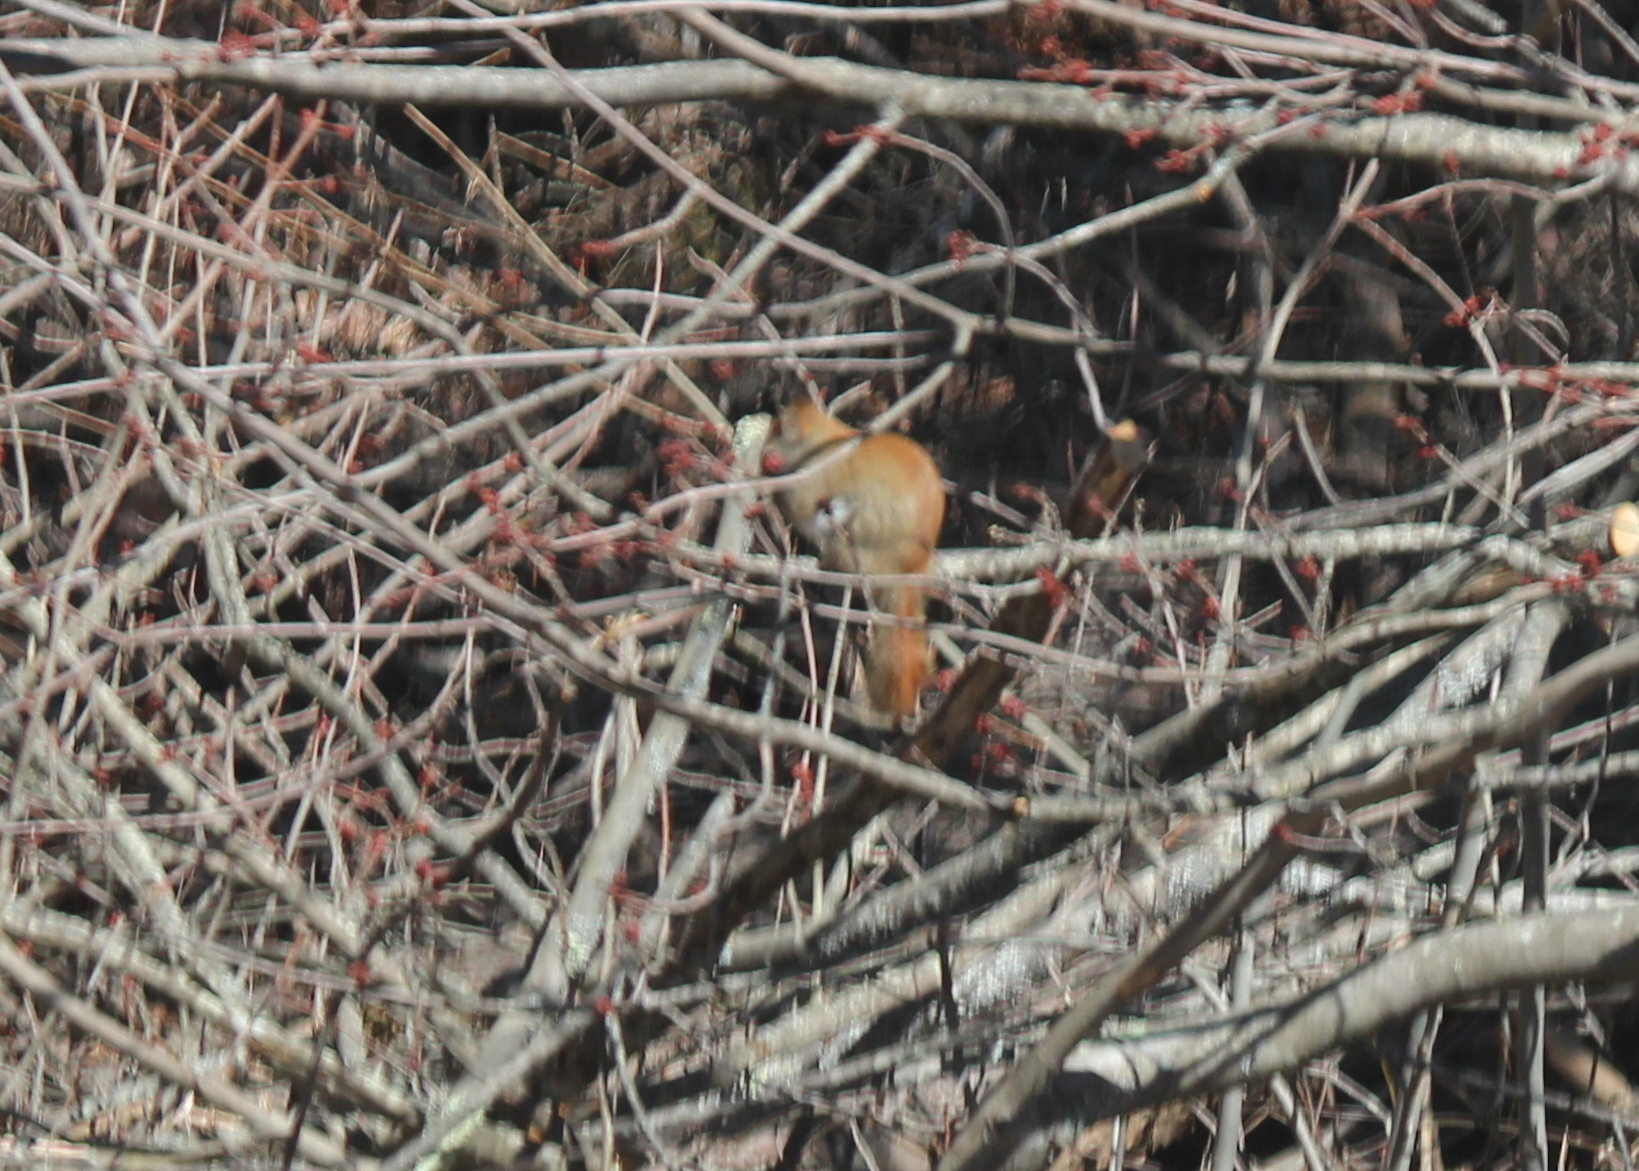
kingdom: Animalia
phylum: Chordata
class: Mammalia
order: Rodentia
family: Sciuridae
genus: Tamiasciurus
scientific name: Tamiasciurus hudsonicus
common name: Red squirrel
